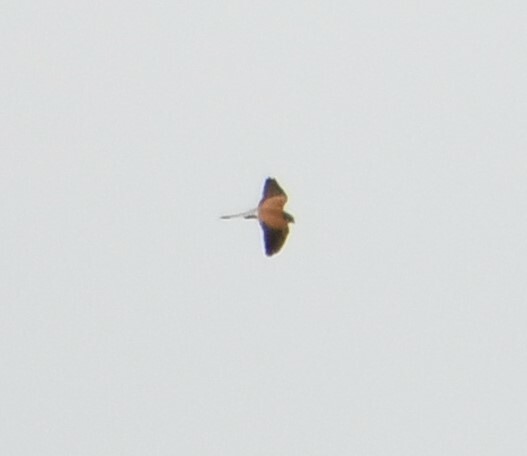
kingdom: Animalia
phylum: Chordata
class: Aves
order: Falconiformes
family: Falconidae
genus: Falco
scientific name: Falco cenchroides
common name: Nankeen kestrel
